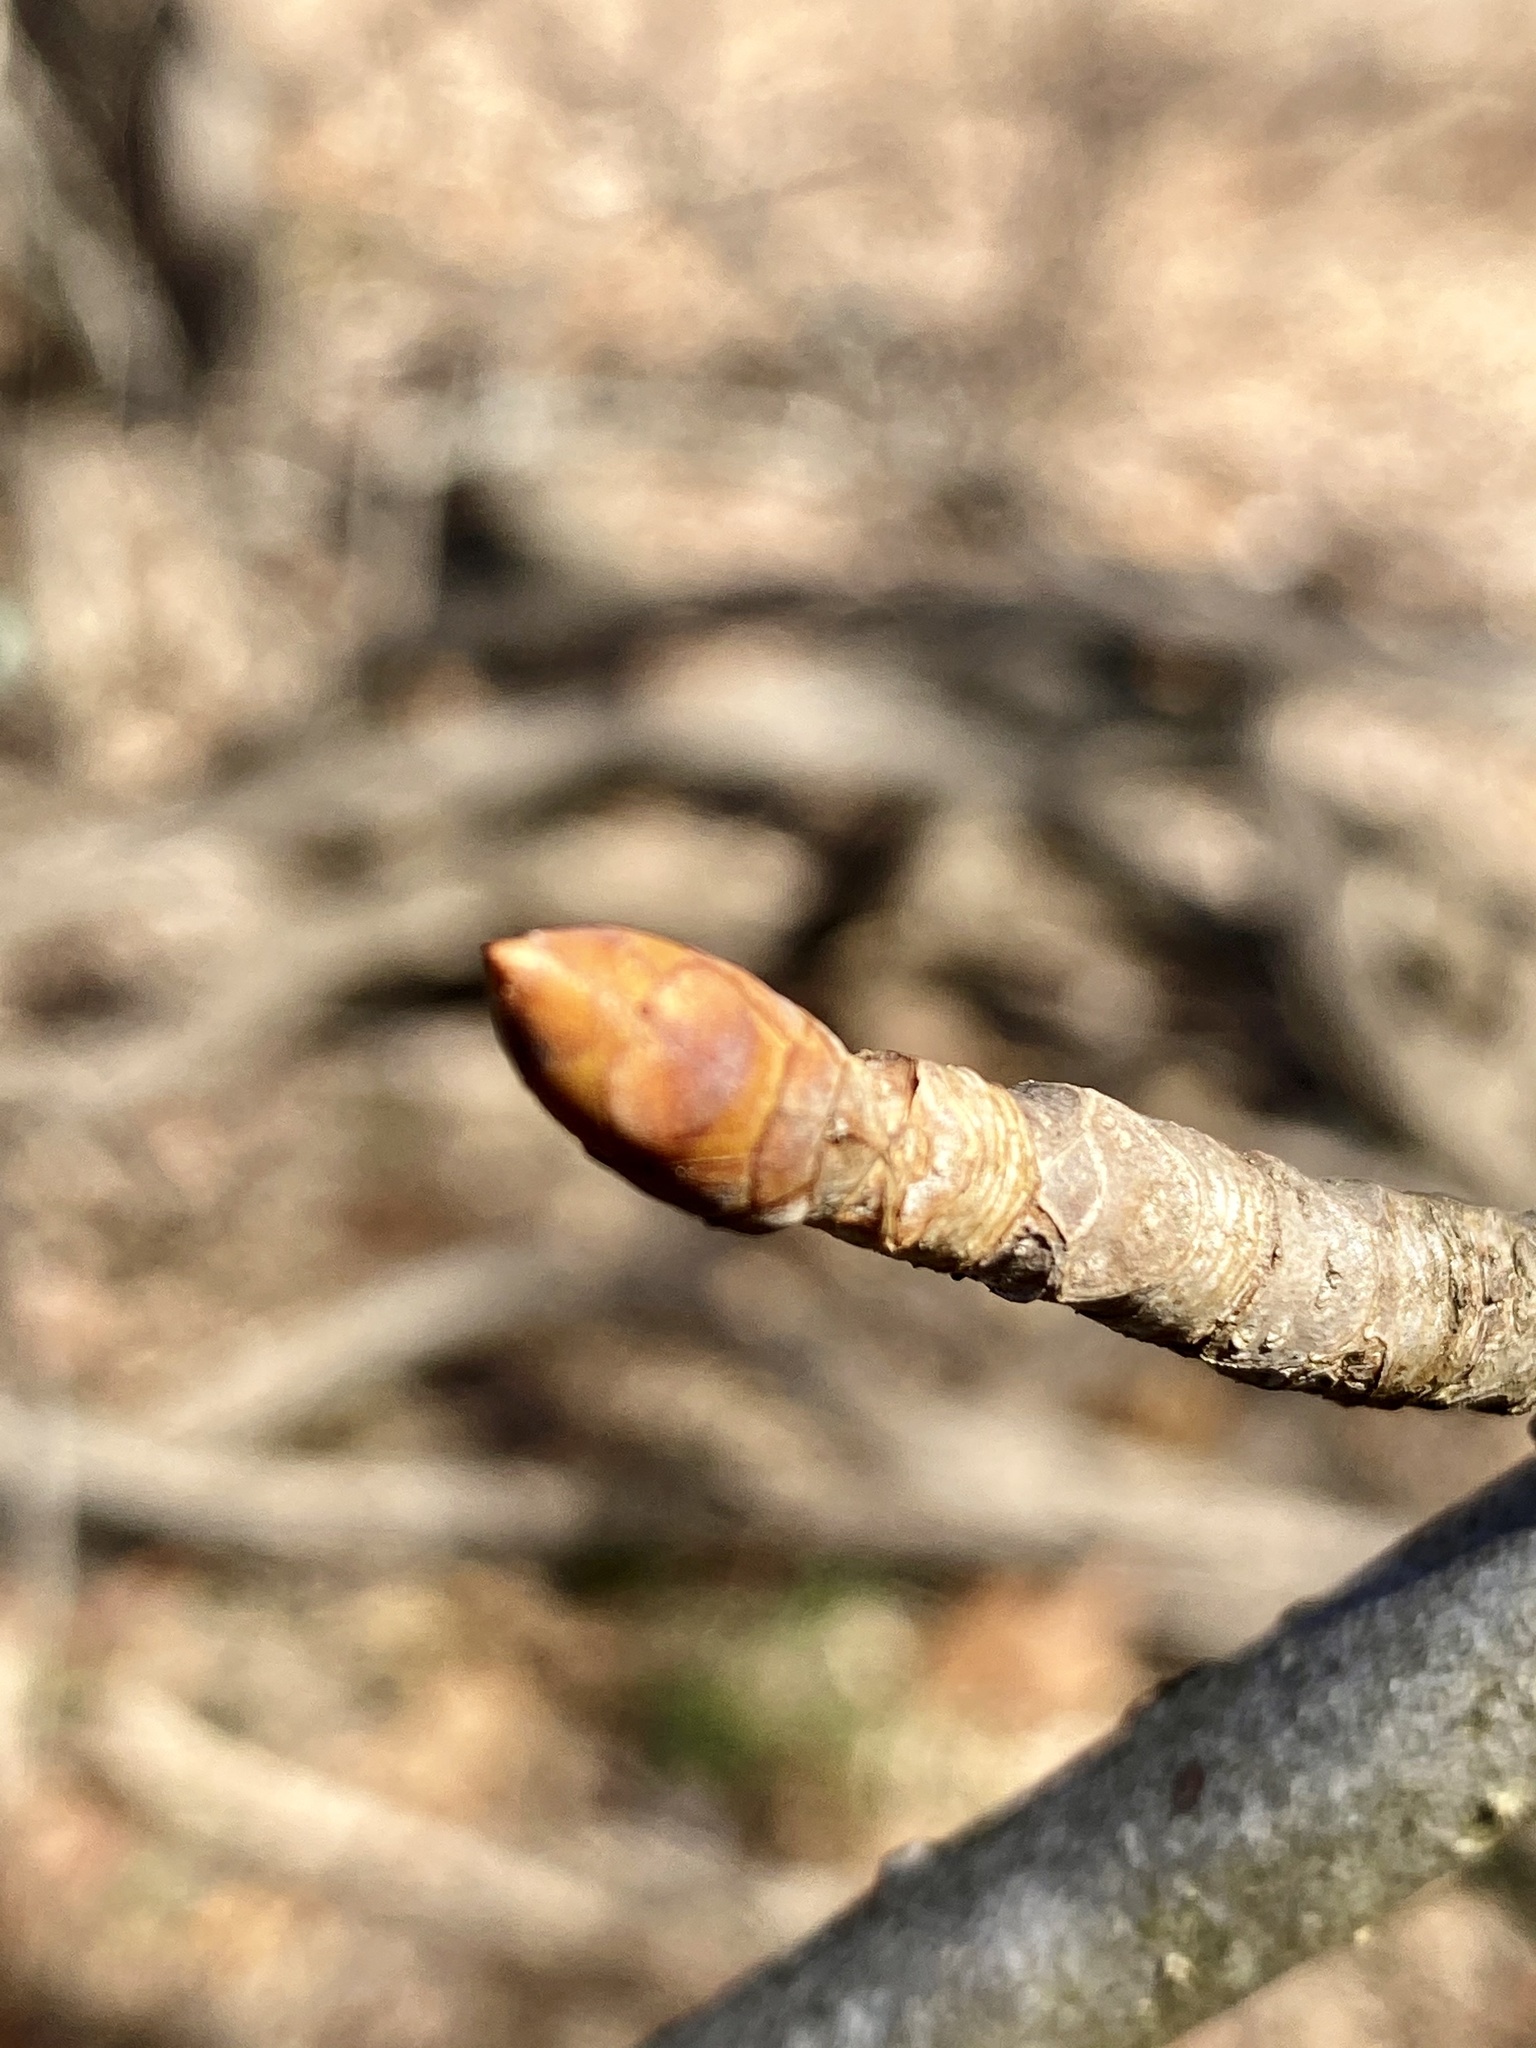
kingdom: Plantae
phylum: Tracheophyta
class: Magnoliopsida
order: Sapindales
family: Sapindaceae
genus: Aesculus
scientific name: Aesculus flava
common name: Yellow buckeye
